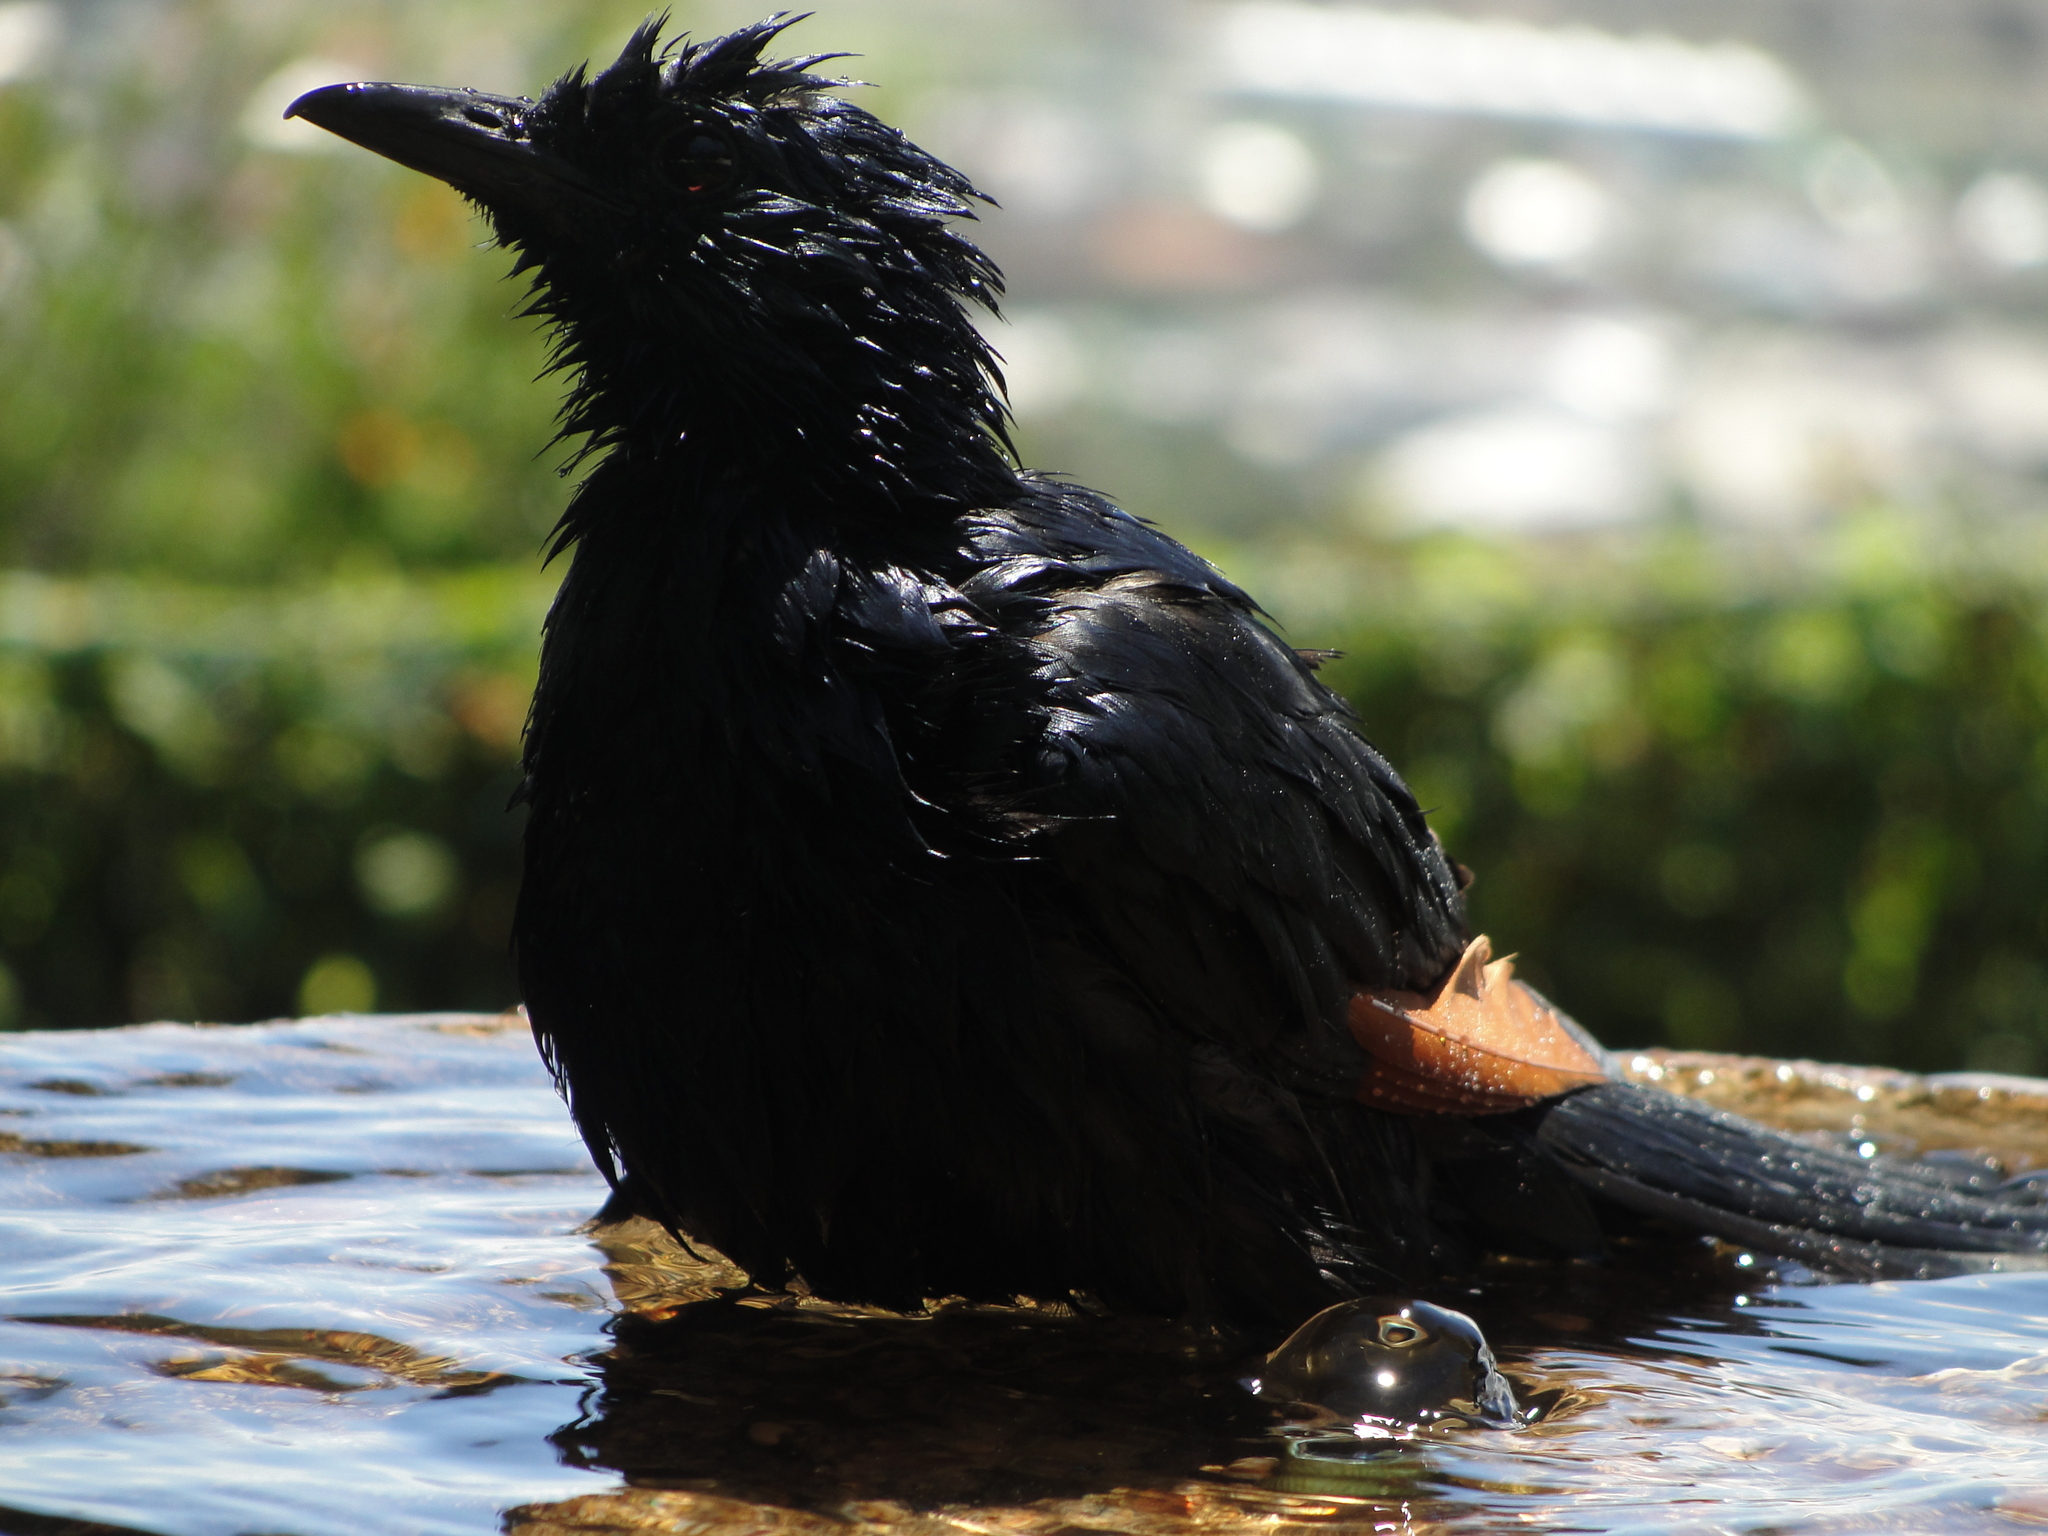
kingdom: Animalia
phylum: Chordata
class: Aves
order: Passeriformes
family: Sturnidae
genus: Onychognathus
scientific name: Onychognathus morio
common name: Red-winged starling
